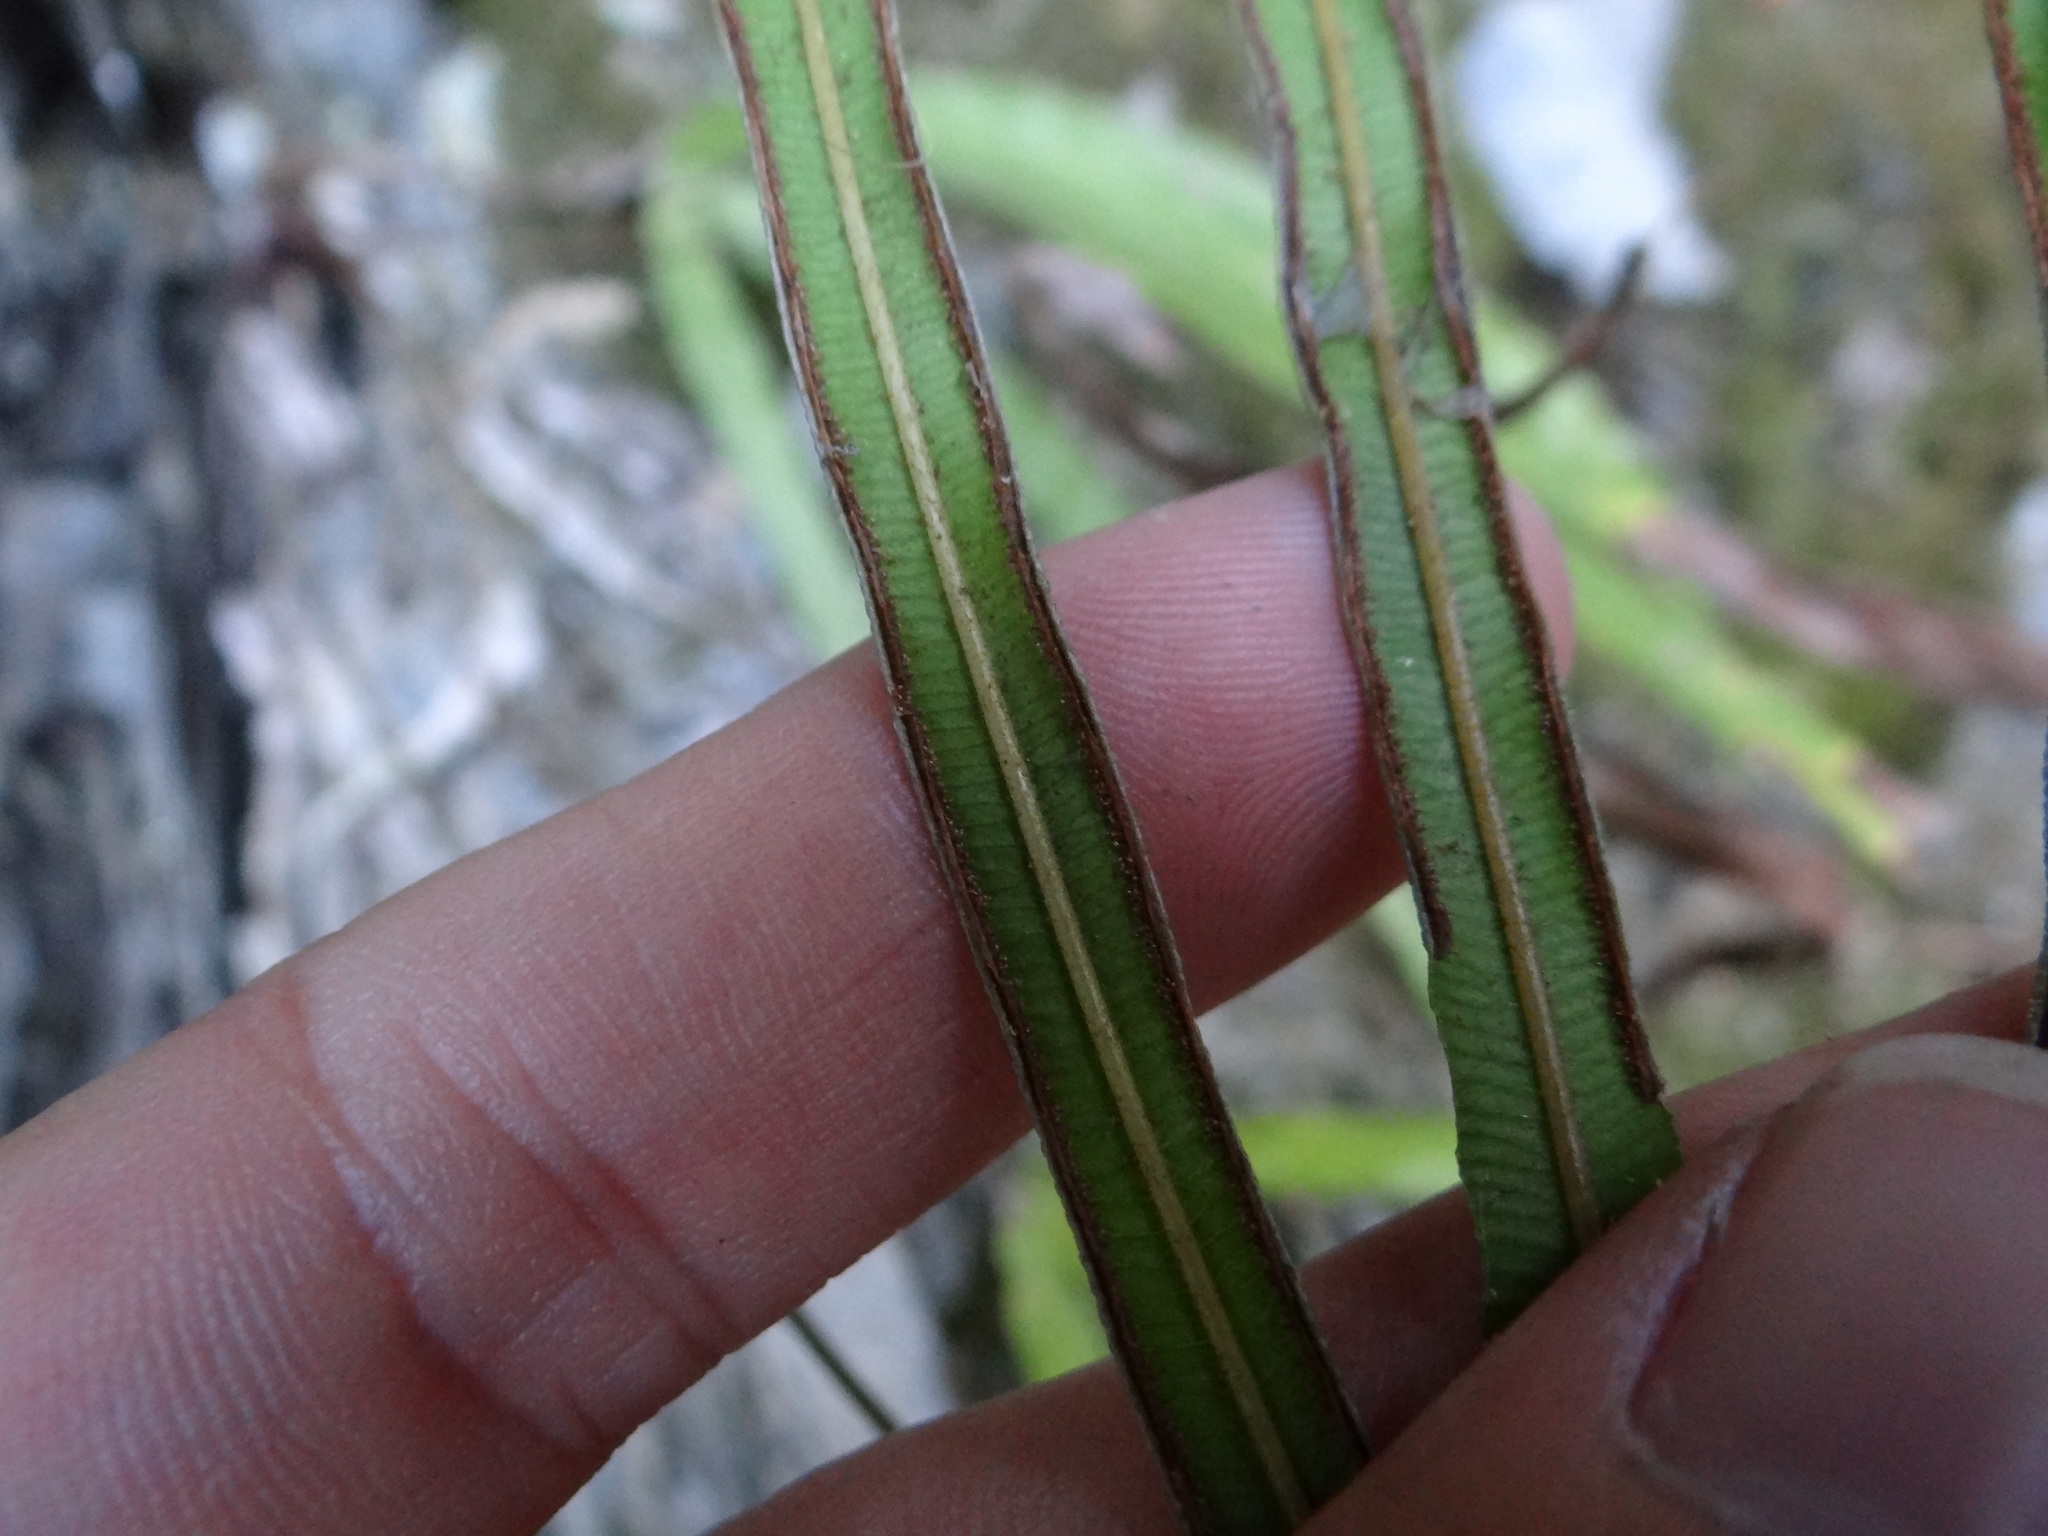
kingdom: Plantae
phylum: Tracheophyta
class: Polypodiopsida
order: Polypodiales
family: Pteridaceae
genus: Pteris
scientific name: Pteris longipinna
